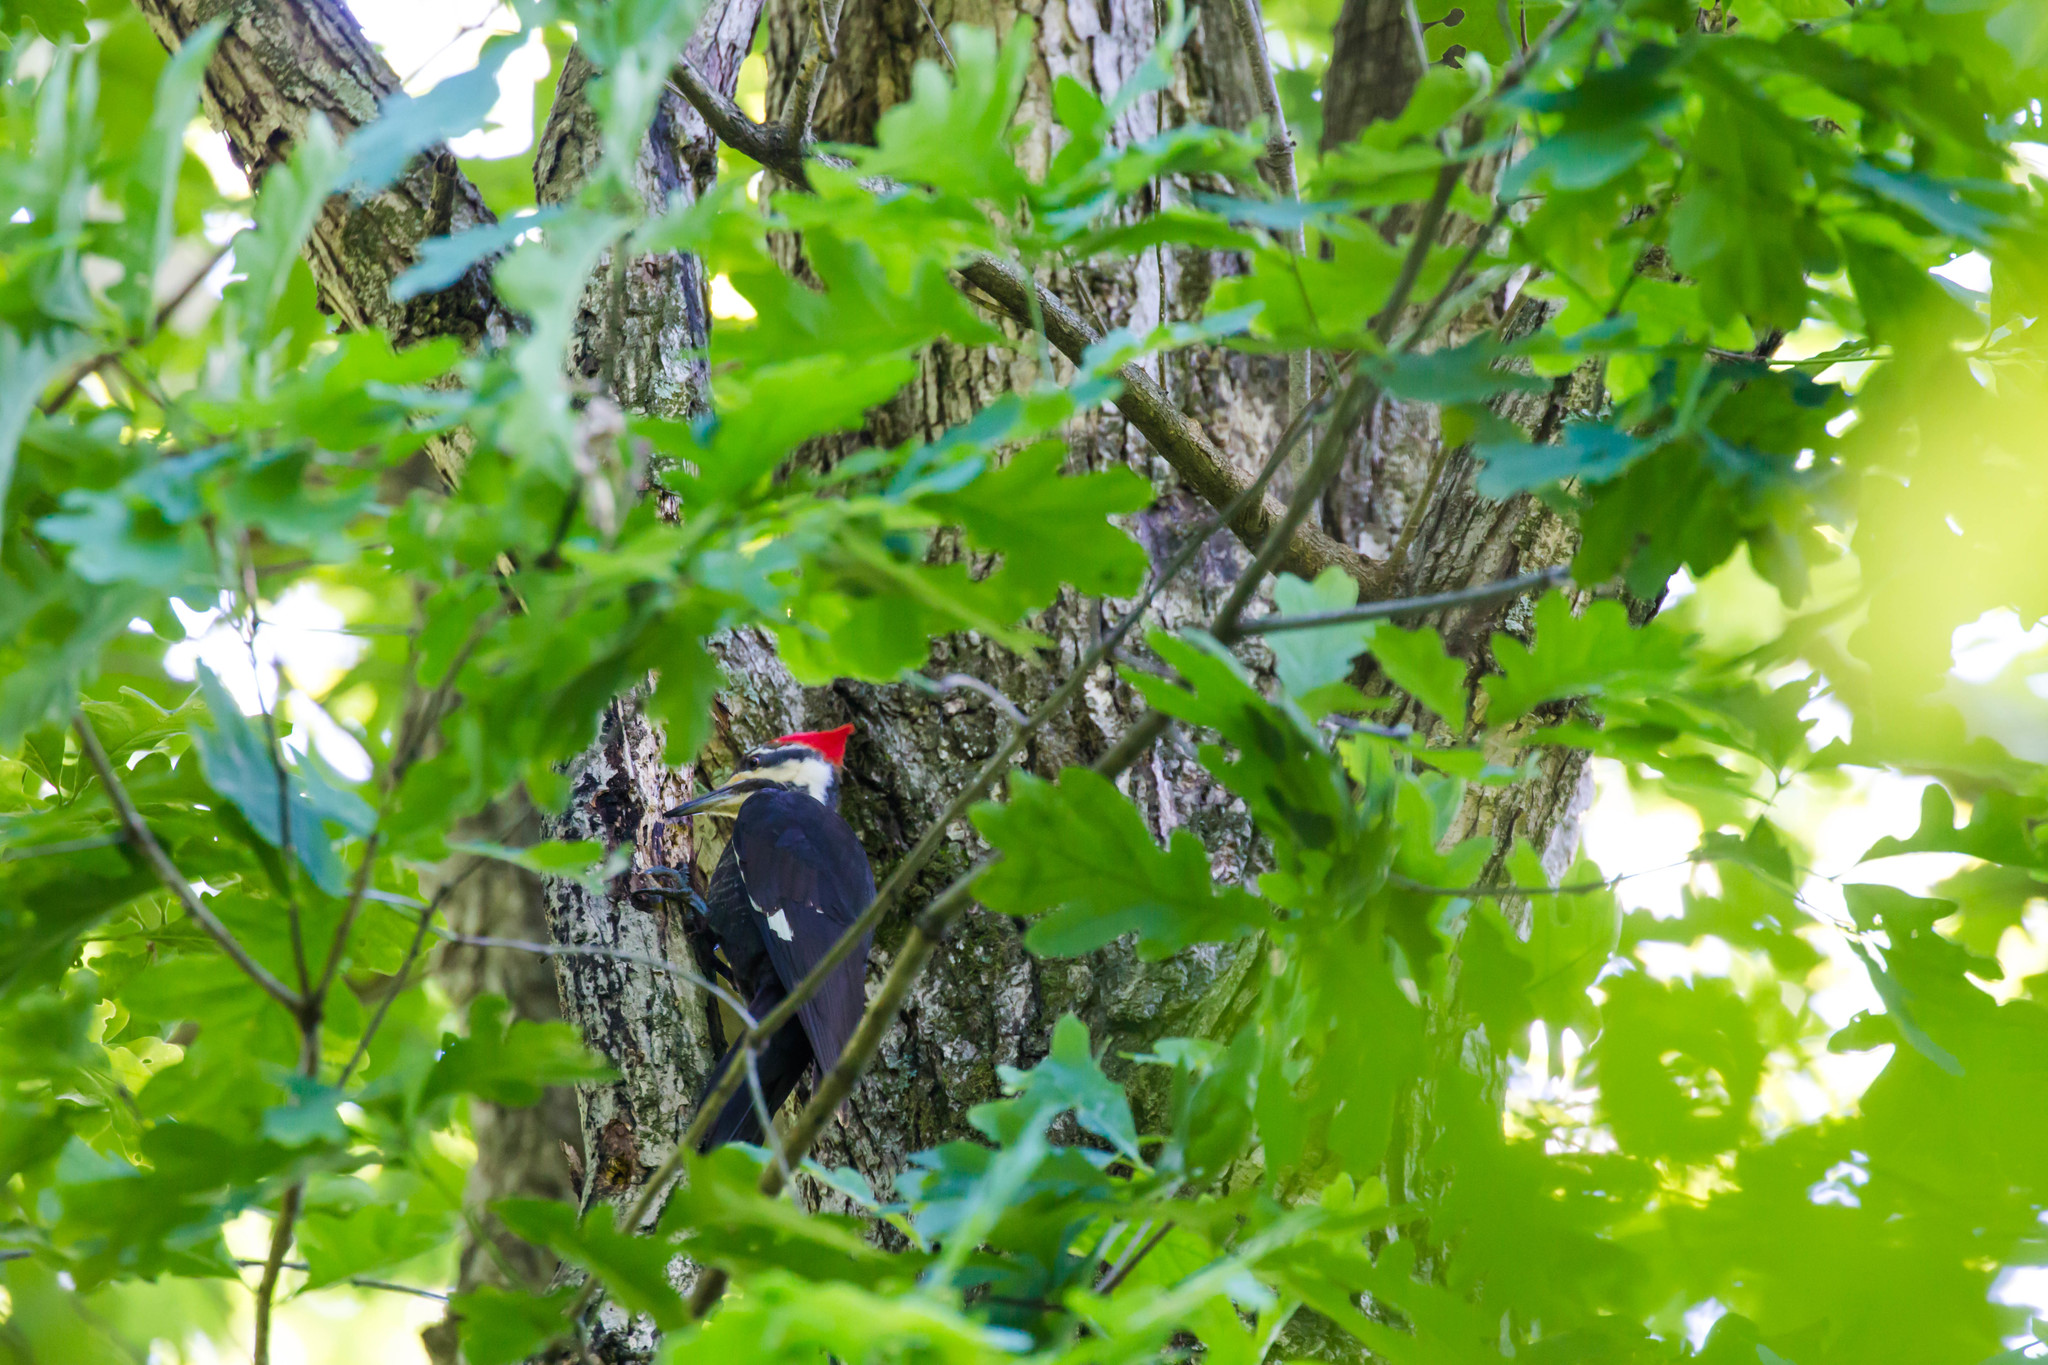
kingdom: Animalia
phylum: Chordata
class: Aves
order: Piciformes
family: Picidae
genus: Dryocopus
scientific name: Dryocopus pileatus
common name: Pileated woodpecker
